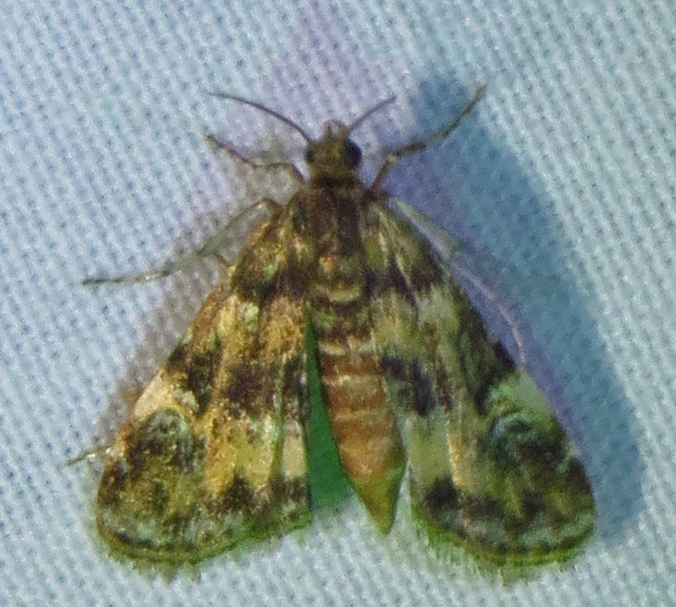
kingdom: Animalia
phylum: Arthropoda
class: Insecta
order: Lepidoptera
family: Crambidae
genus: Elophila
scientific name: Elophila obliteralis
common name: Waterlily leafcutter moth
